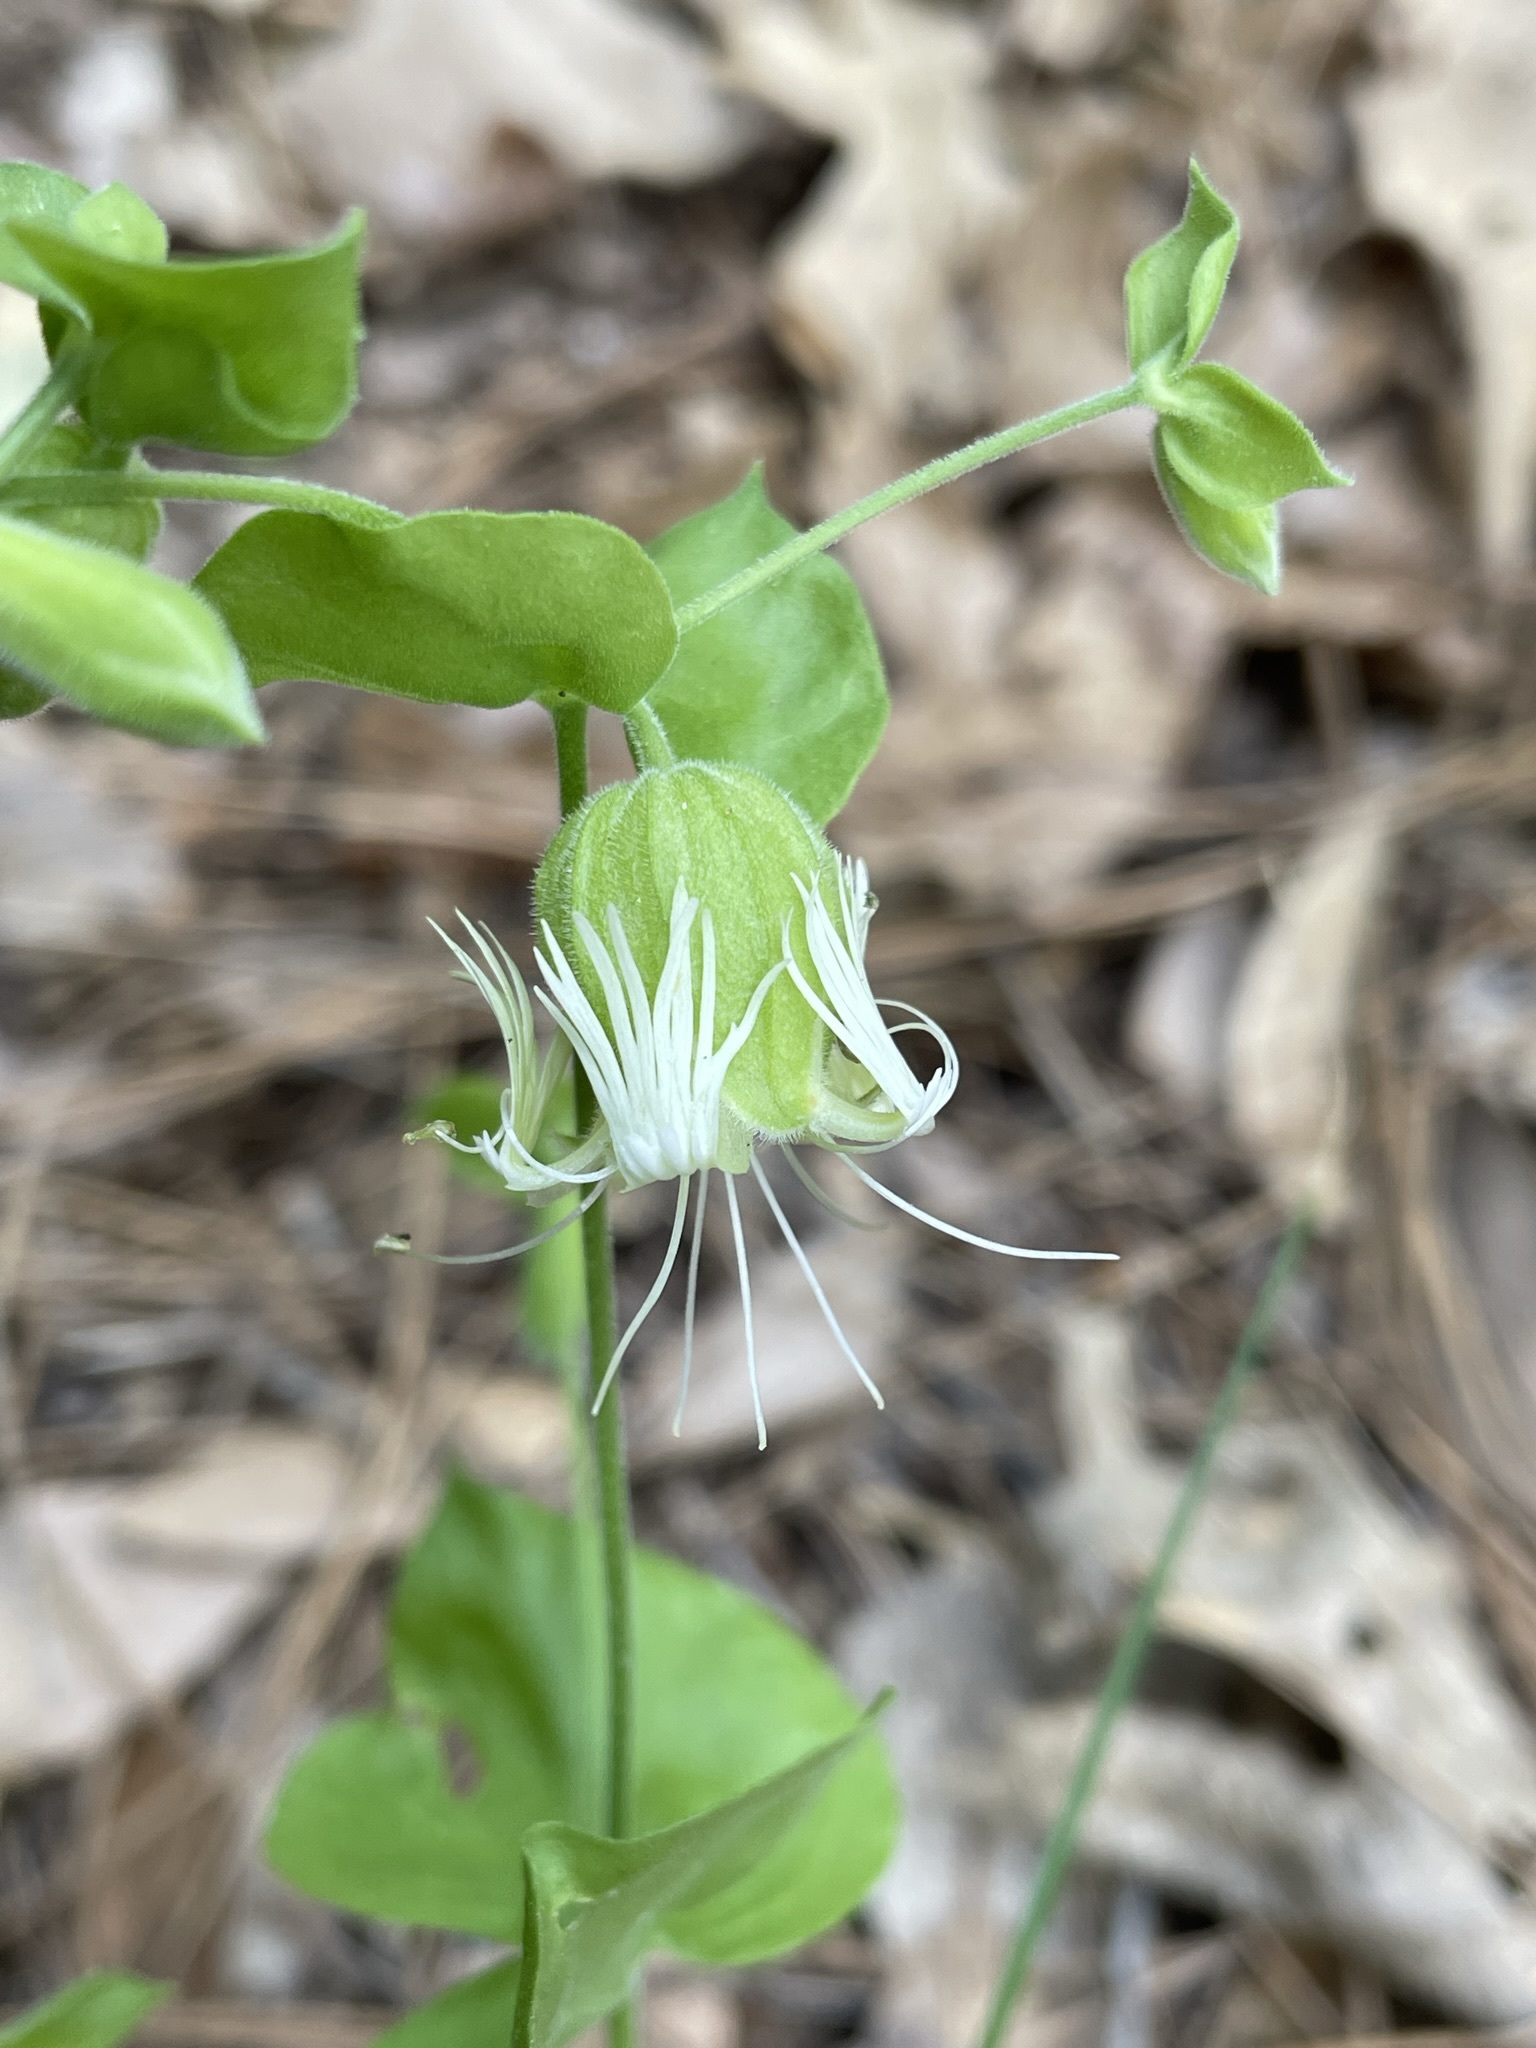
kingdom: Plantae
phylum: Tracheophyta
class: Magnoliopsida
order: Caryophyllales
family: Caryophyllaceae
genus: Silene
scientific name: Silene greenei
